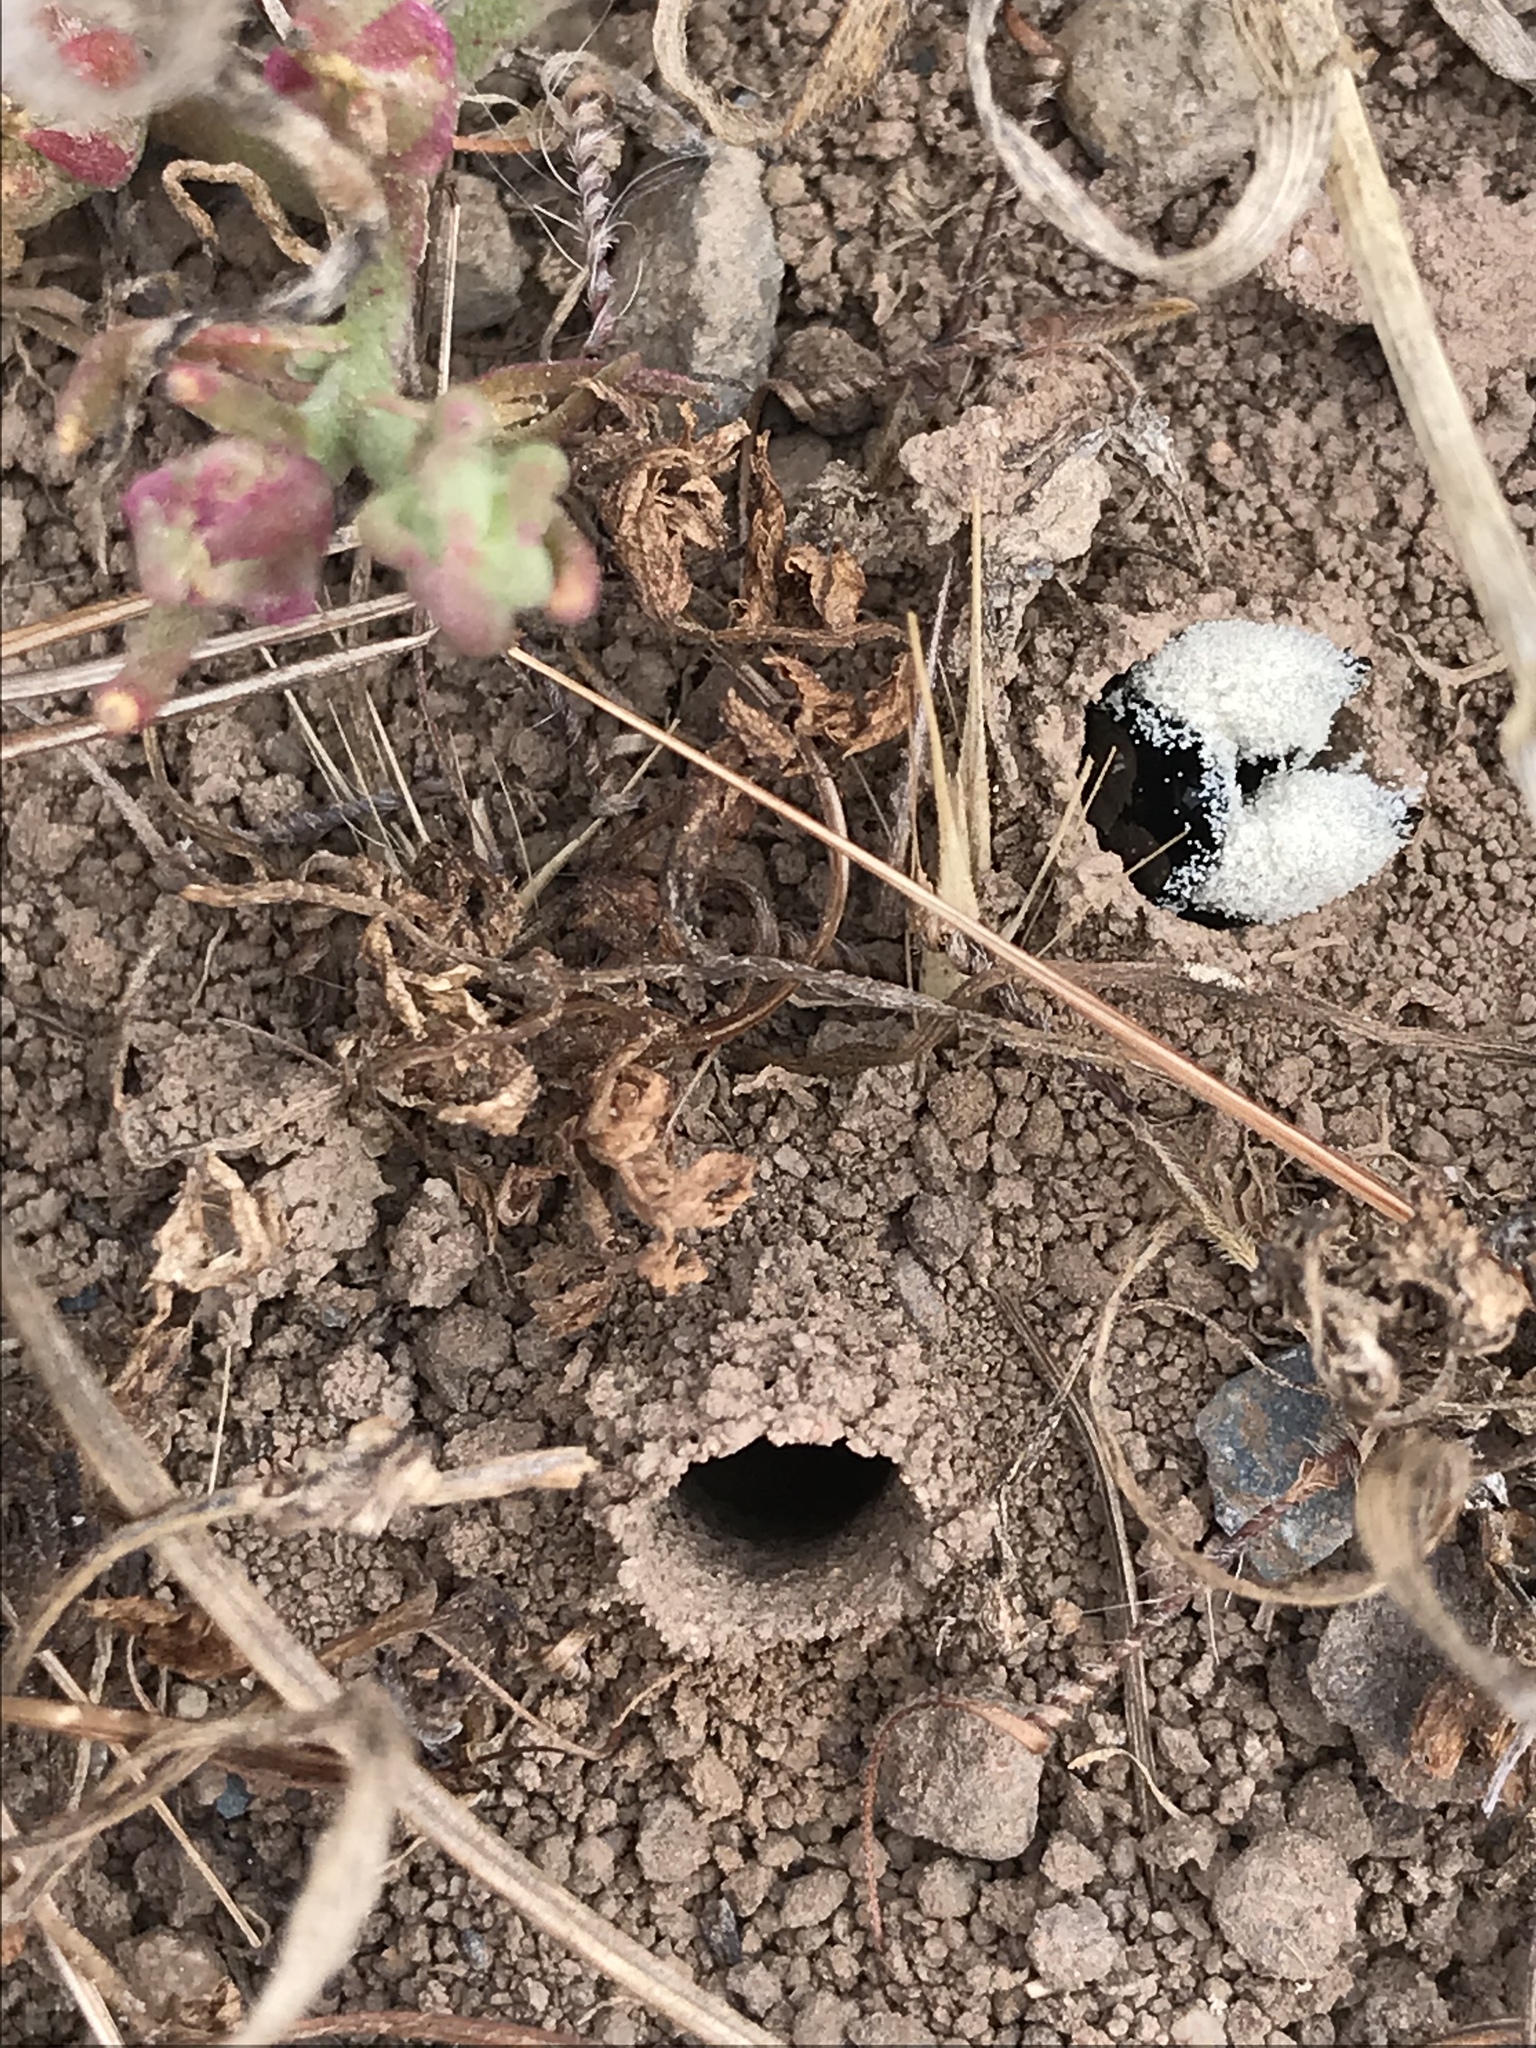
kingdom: Animalia
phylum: Arthropoda
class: Insecta
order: Hymenoptera
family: Apidae
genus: Diadasia
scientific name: Diadasia bituberculata
